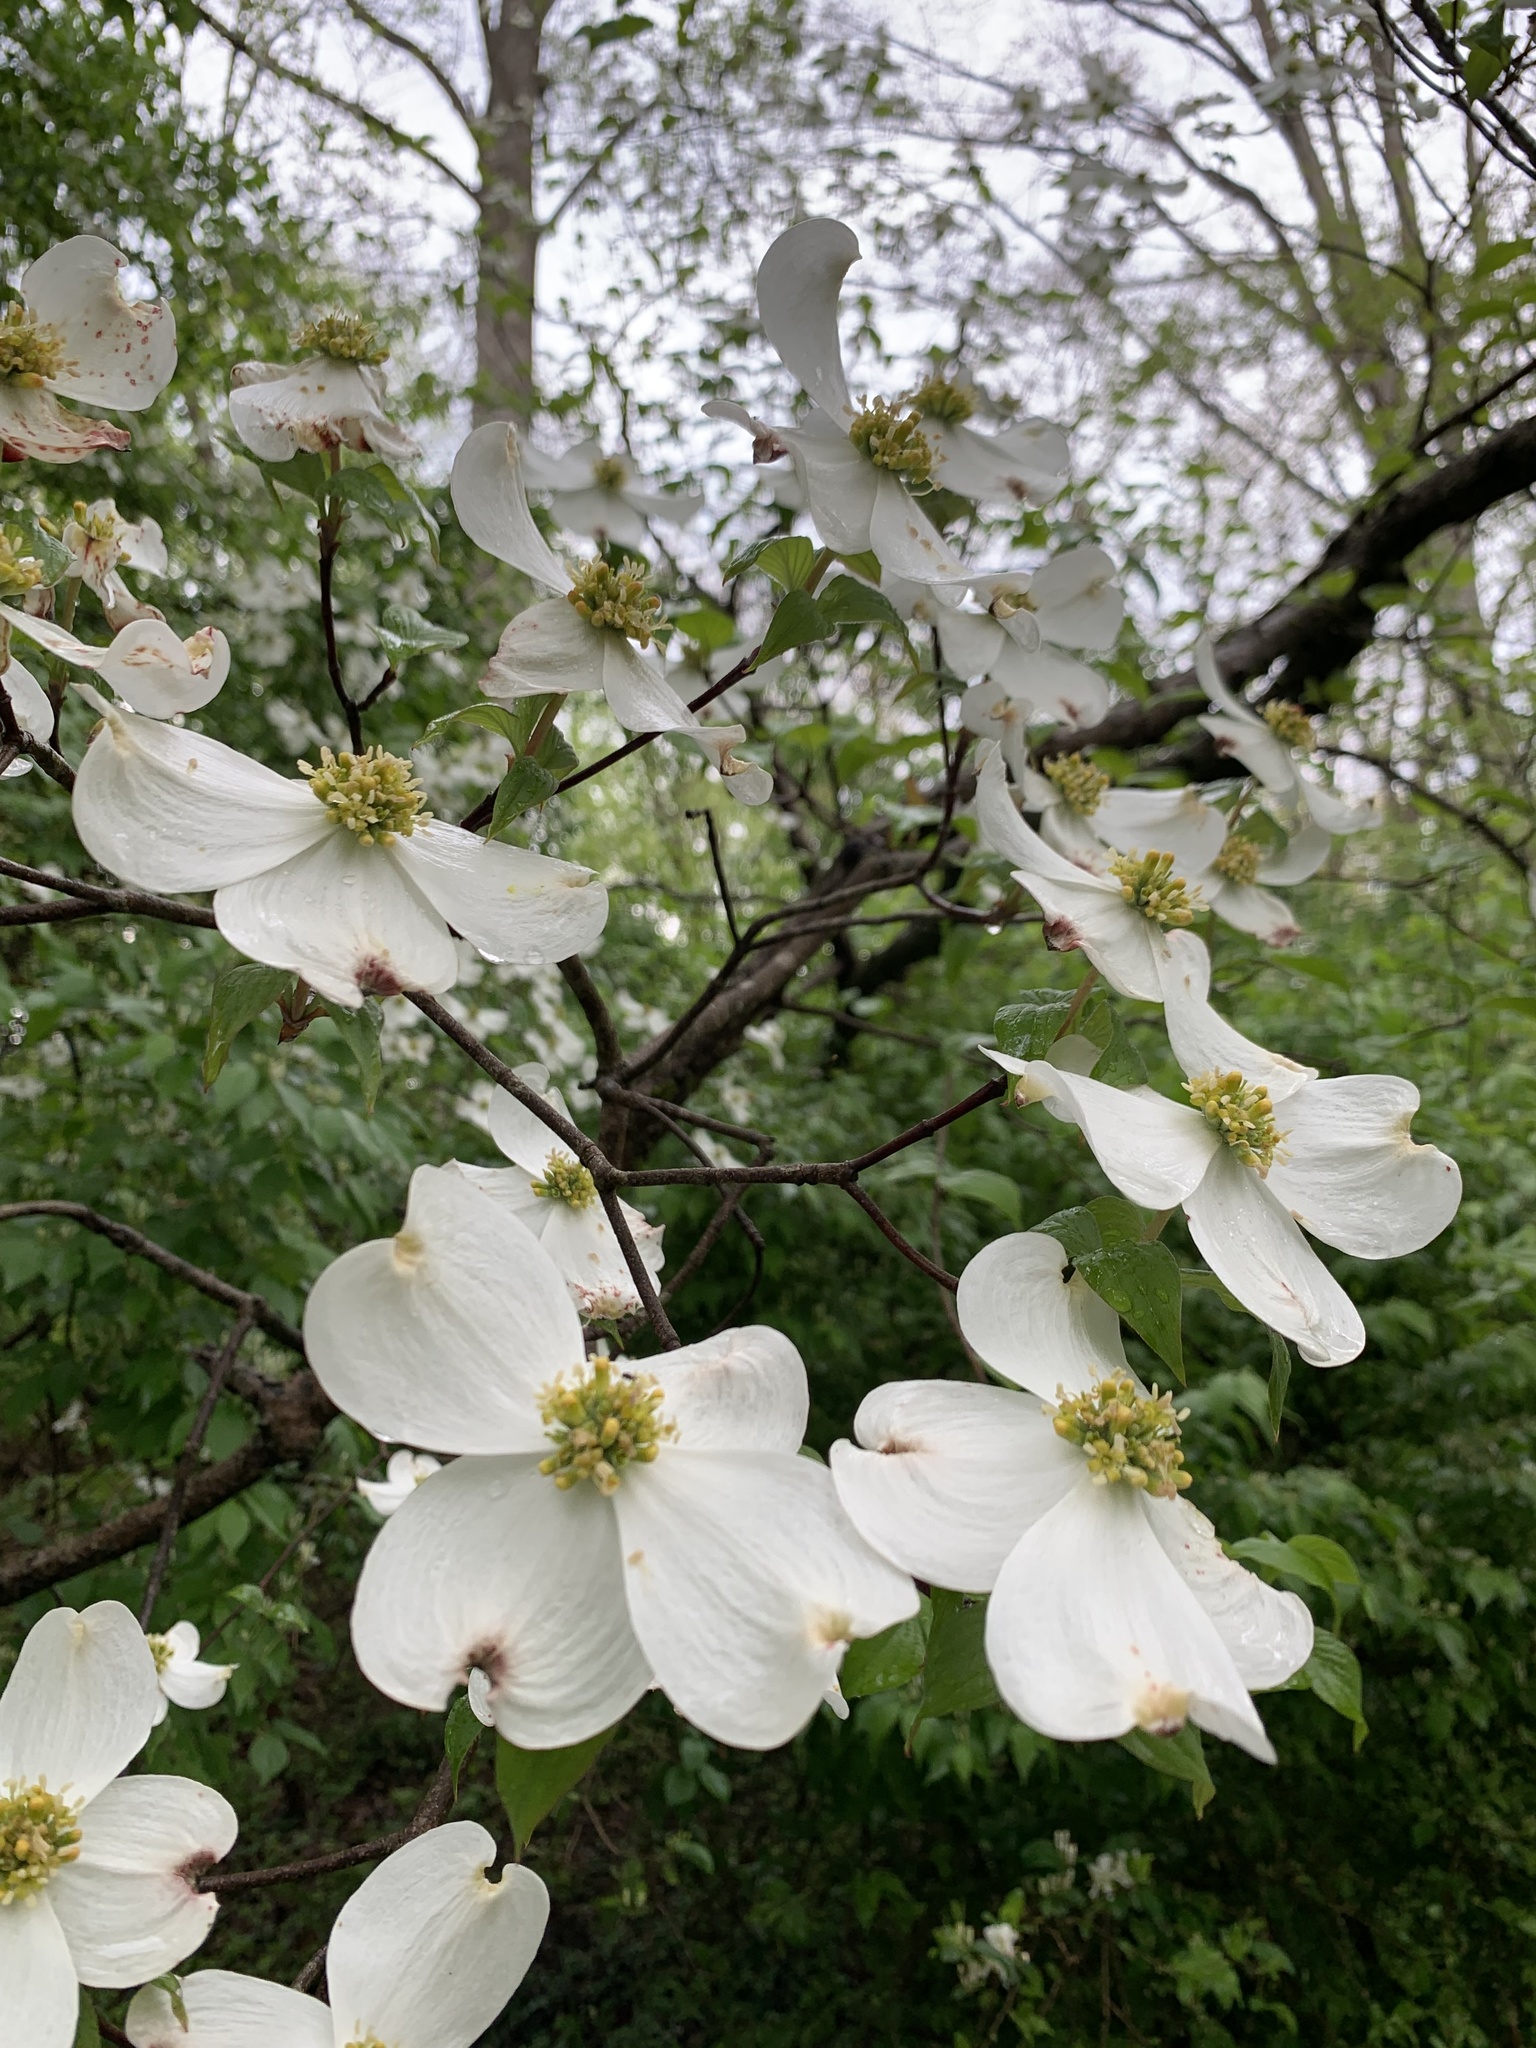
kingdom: Plantae
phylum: Tracheophyta
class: Magnoliopsida
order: Cornales
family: Cornaceae
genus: Cornus
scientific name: Cornus florida
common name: Flowering dogwood
